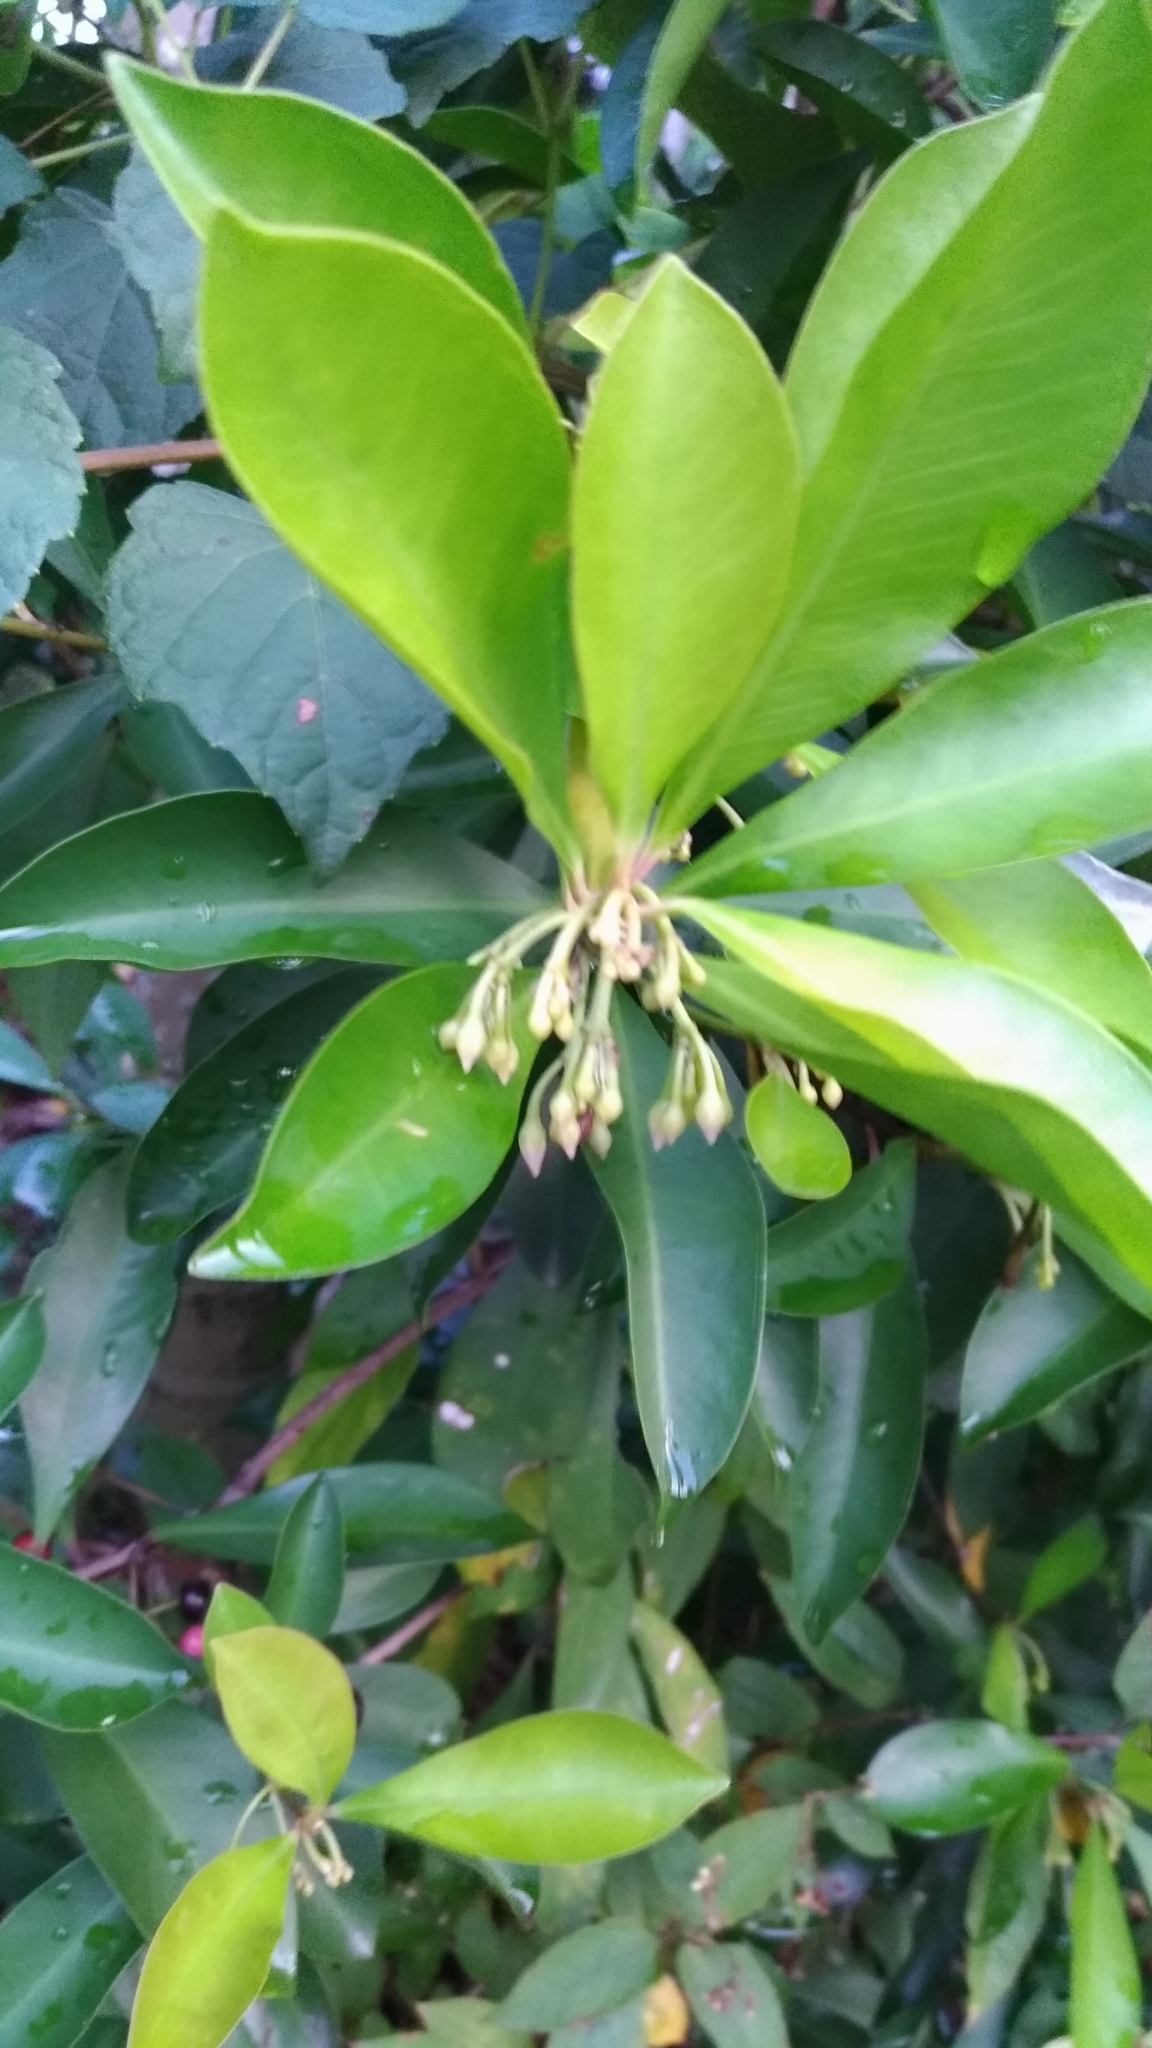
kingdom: Plantae
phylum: Tracheophyta
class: Magnoliopsida
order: Ericales
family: Primulaceae
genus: Ardisia
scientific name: Ardisia elliptica
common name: Shoebutton
